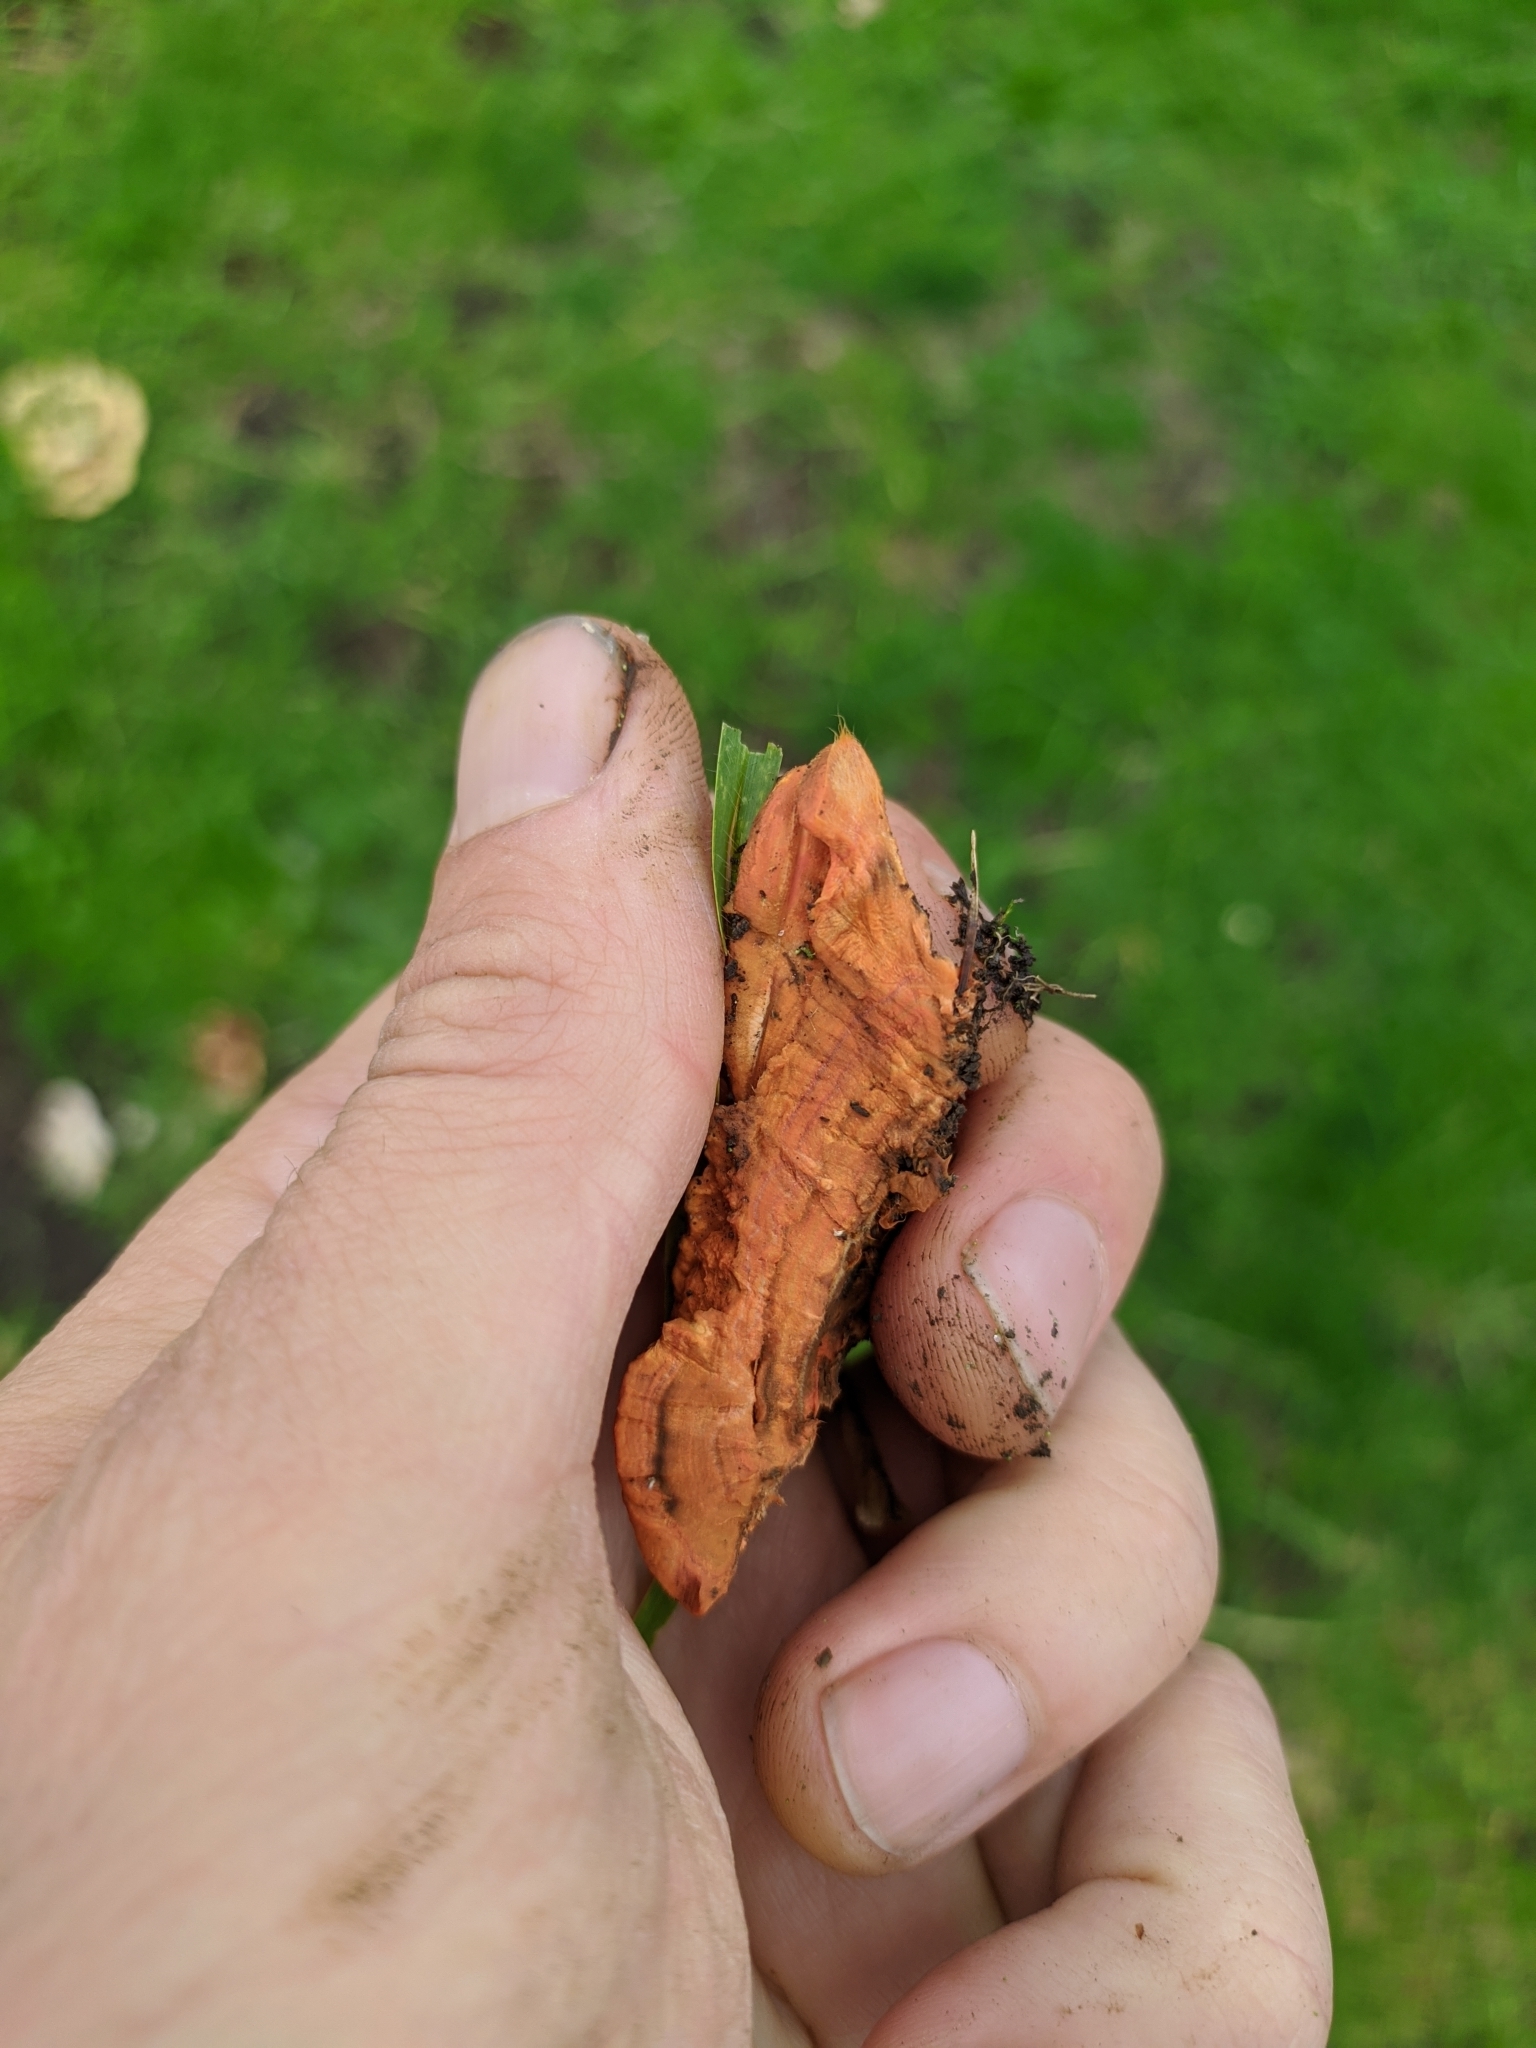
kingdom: Fungi
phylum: Basidiomycota
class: Agaricomycetes
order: Polyporales
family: Polyporaceae
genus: Trametes
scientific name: Trametes coccinea
